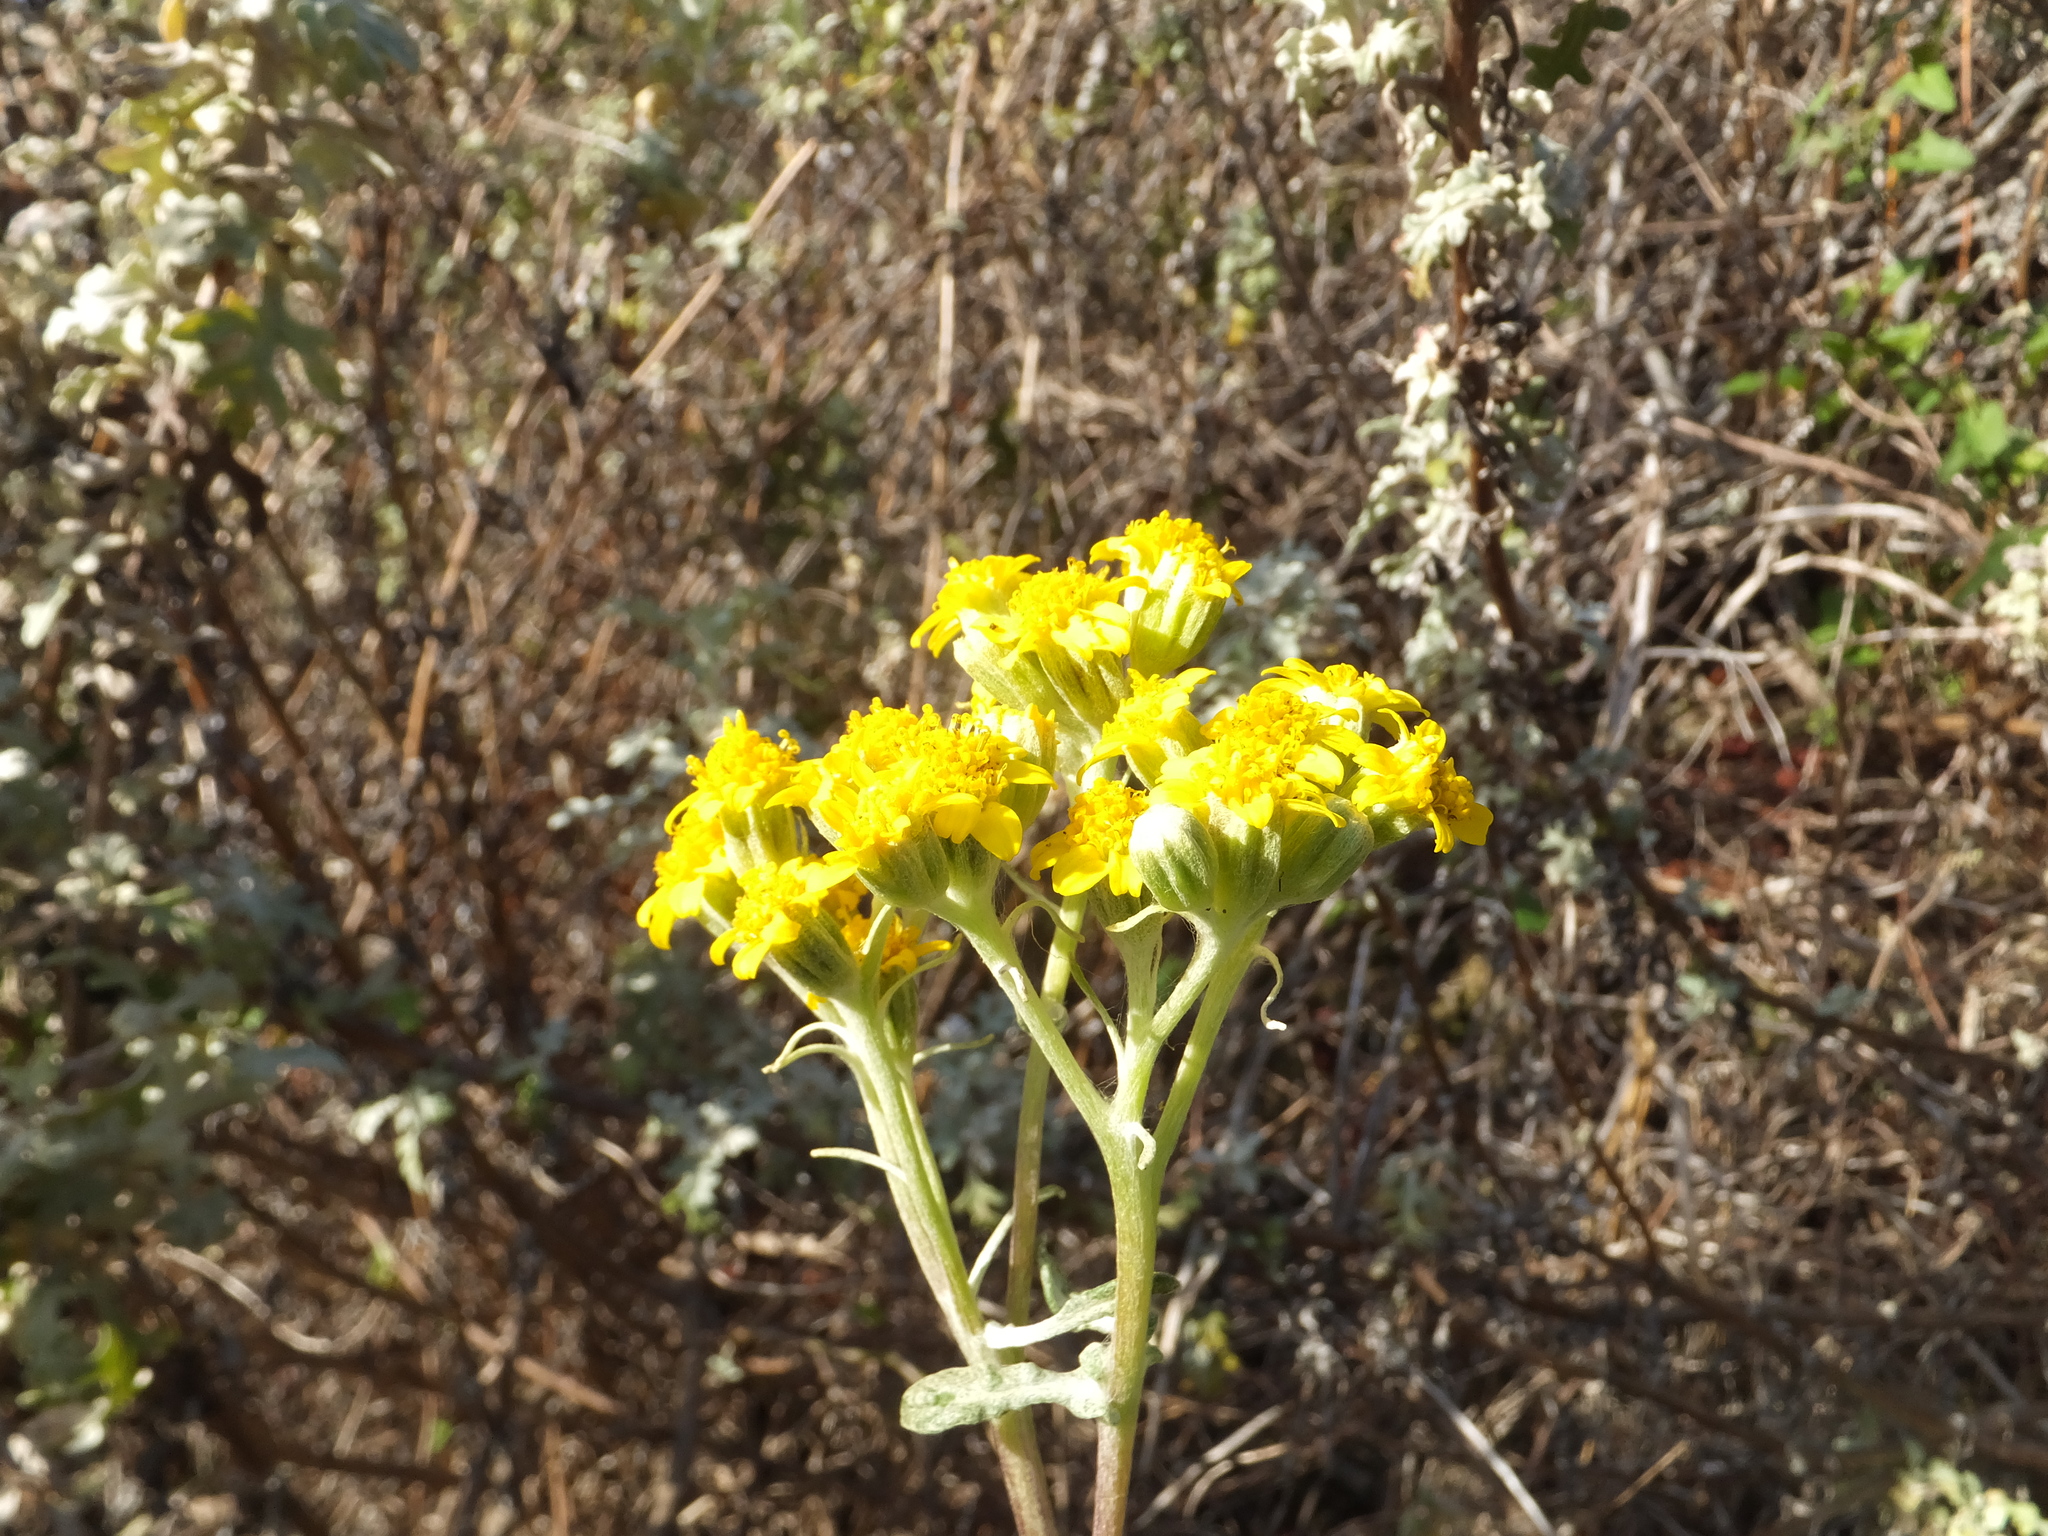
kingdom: Plantae
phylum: Tracheophyta
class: Magnoliopsida
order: Asterales
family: Asteraceae
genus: Eriophyllum
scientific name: Eriophyllum staechadifolium
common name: Lizardtail
